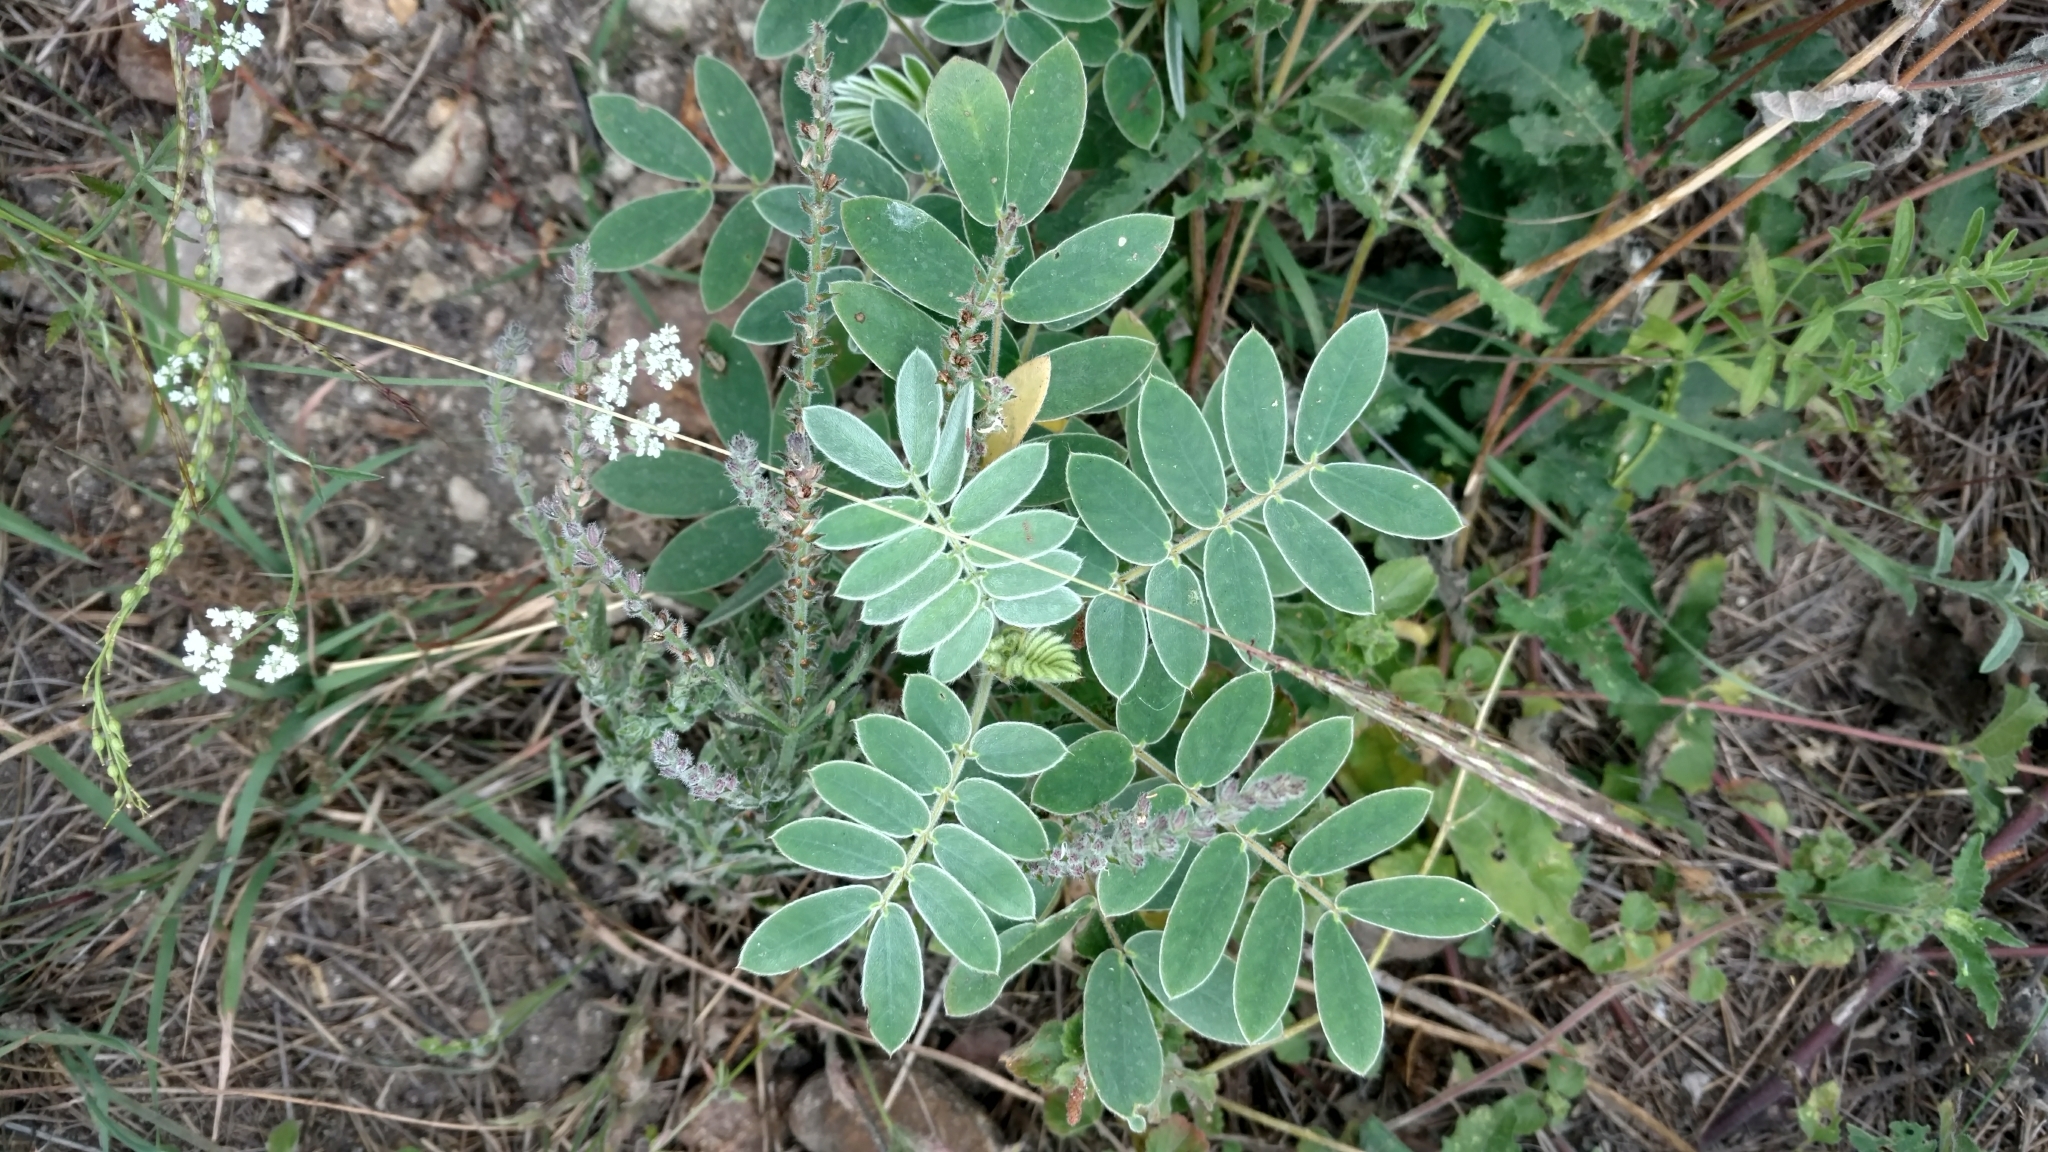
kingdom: Plantae
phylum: Tracheophyta
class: Magnoliopsida
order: Fabales
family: Fabaceae
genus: Senna
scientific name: Senna lindheimeriana
